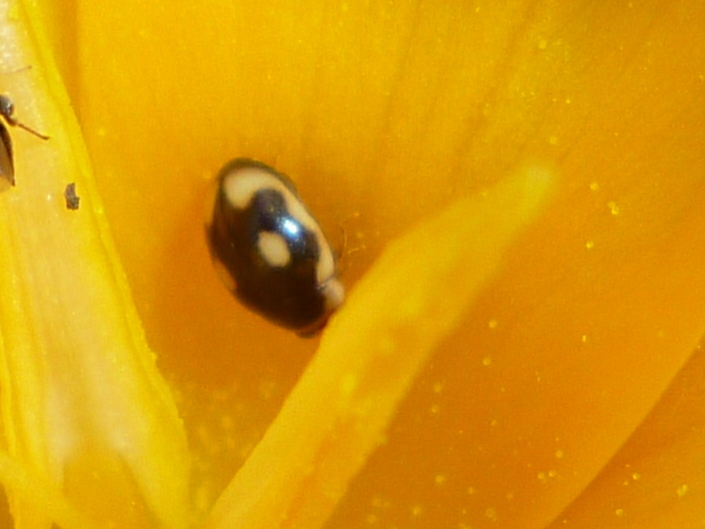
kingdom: Animalia
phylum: Arthropoda
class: Insecta
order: Coleoptera
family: Coccinellidae
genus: Hyperaspis
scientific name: Hyperaspis undulata
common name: Undulate sigil lady beetle
